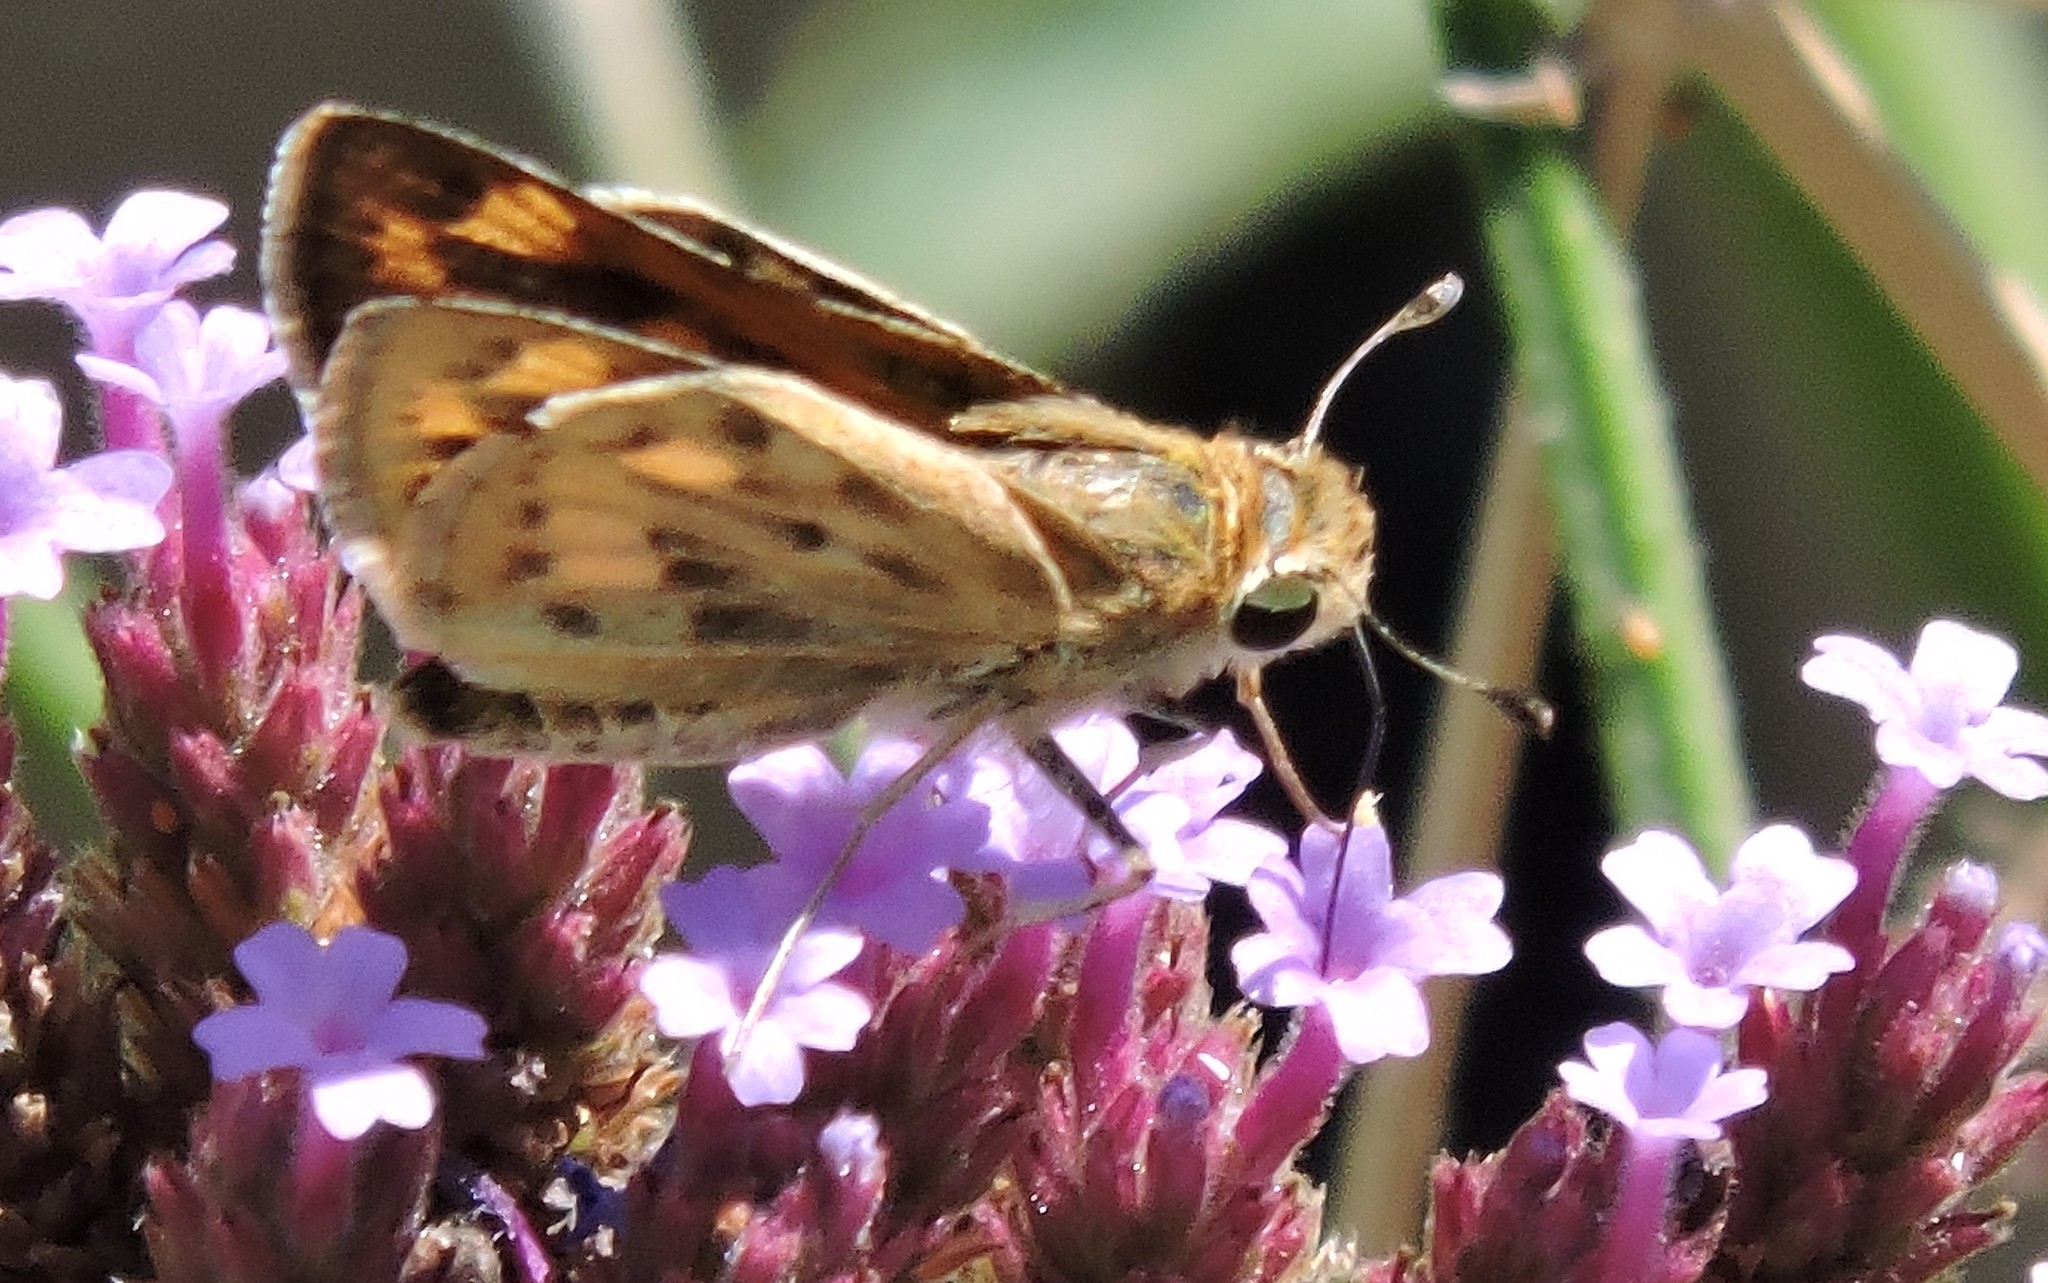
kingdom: Animalia
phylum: Arthropoda
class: Insecta
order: Lepidoptera
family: Hesperiidae
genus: Hylephila
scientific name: Hylephila phyleus
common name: Fiery skipper
